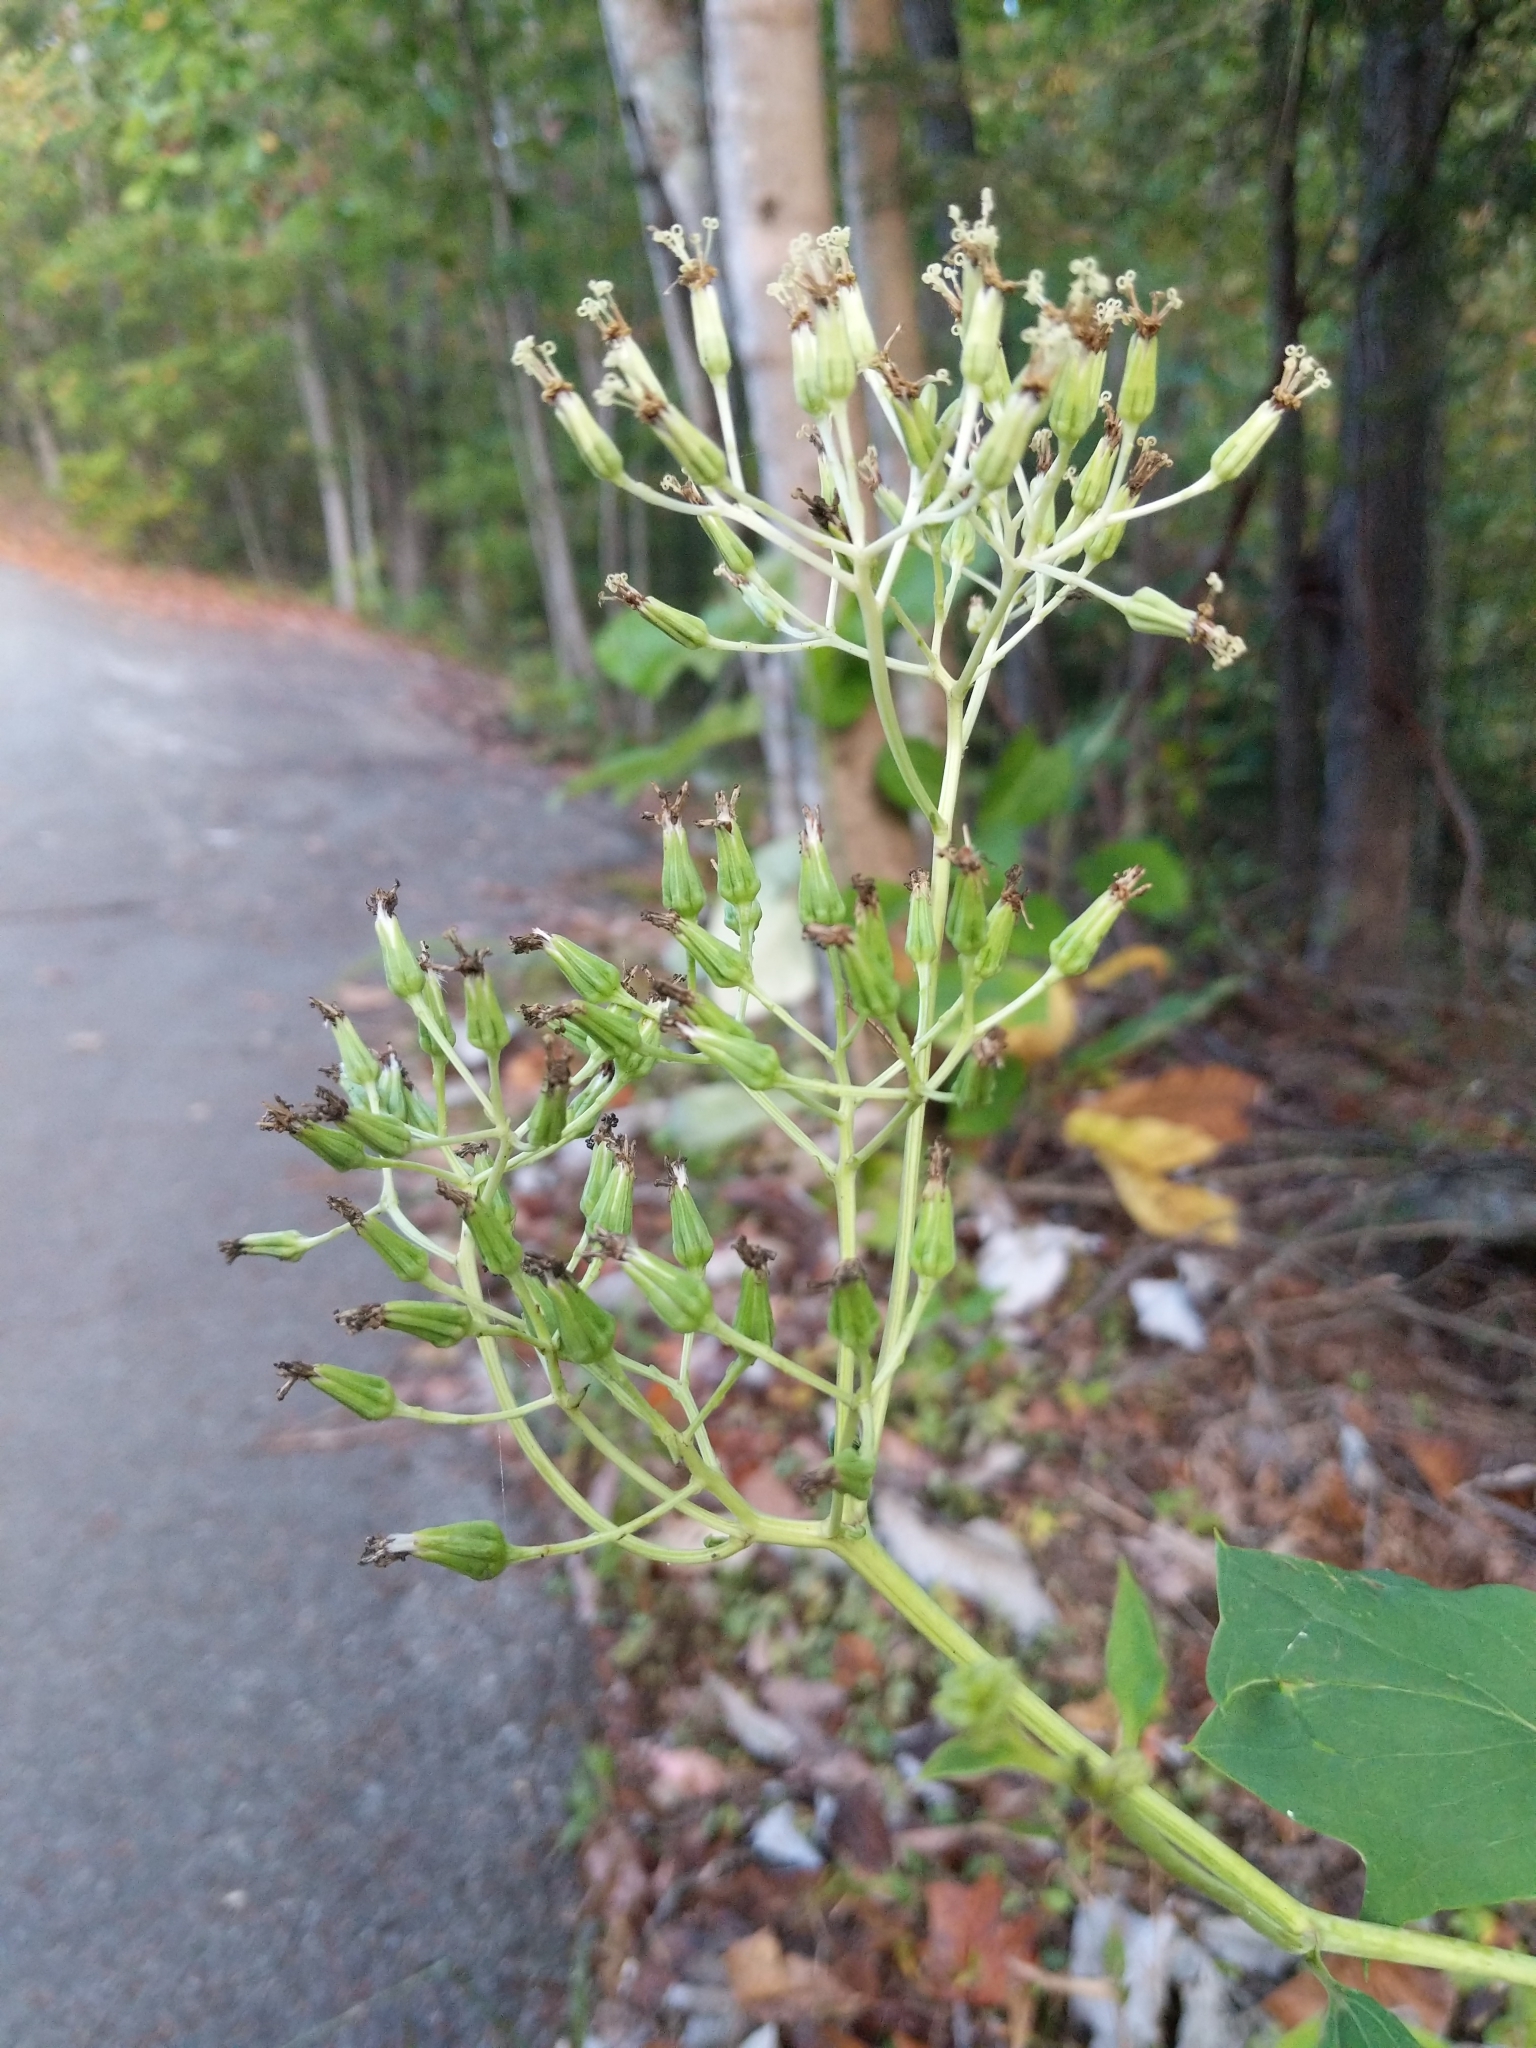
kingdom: Plantae
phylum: Tracheophyta
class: Magnoliopsida
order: Asterales
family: Asteraceae
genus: Arnoglossum
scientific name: Arnoglossum atriplicifolium
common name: Pale indian-plantain
